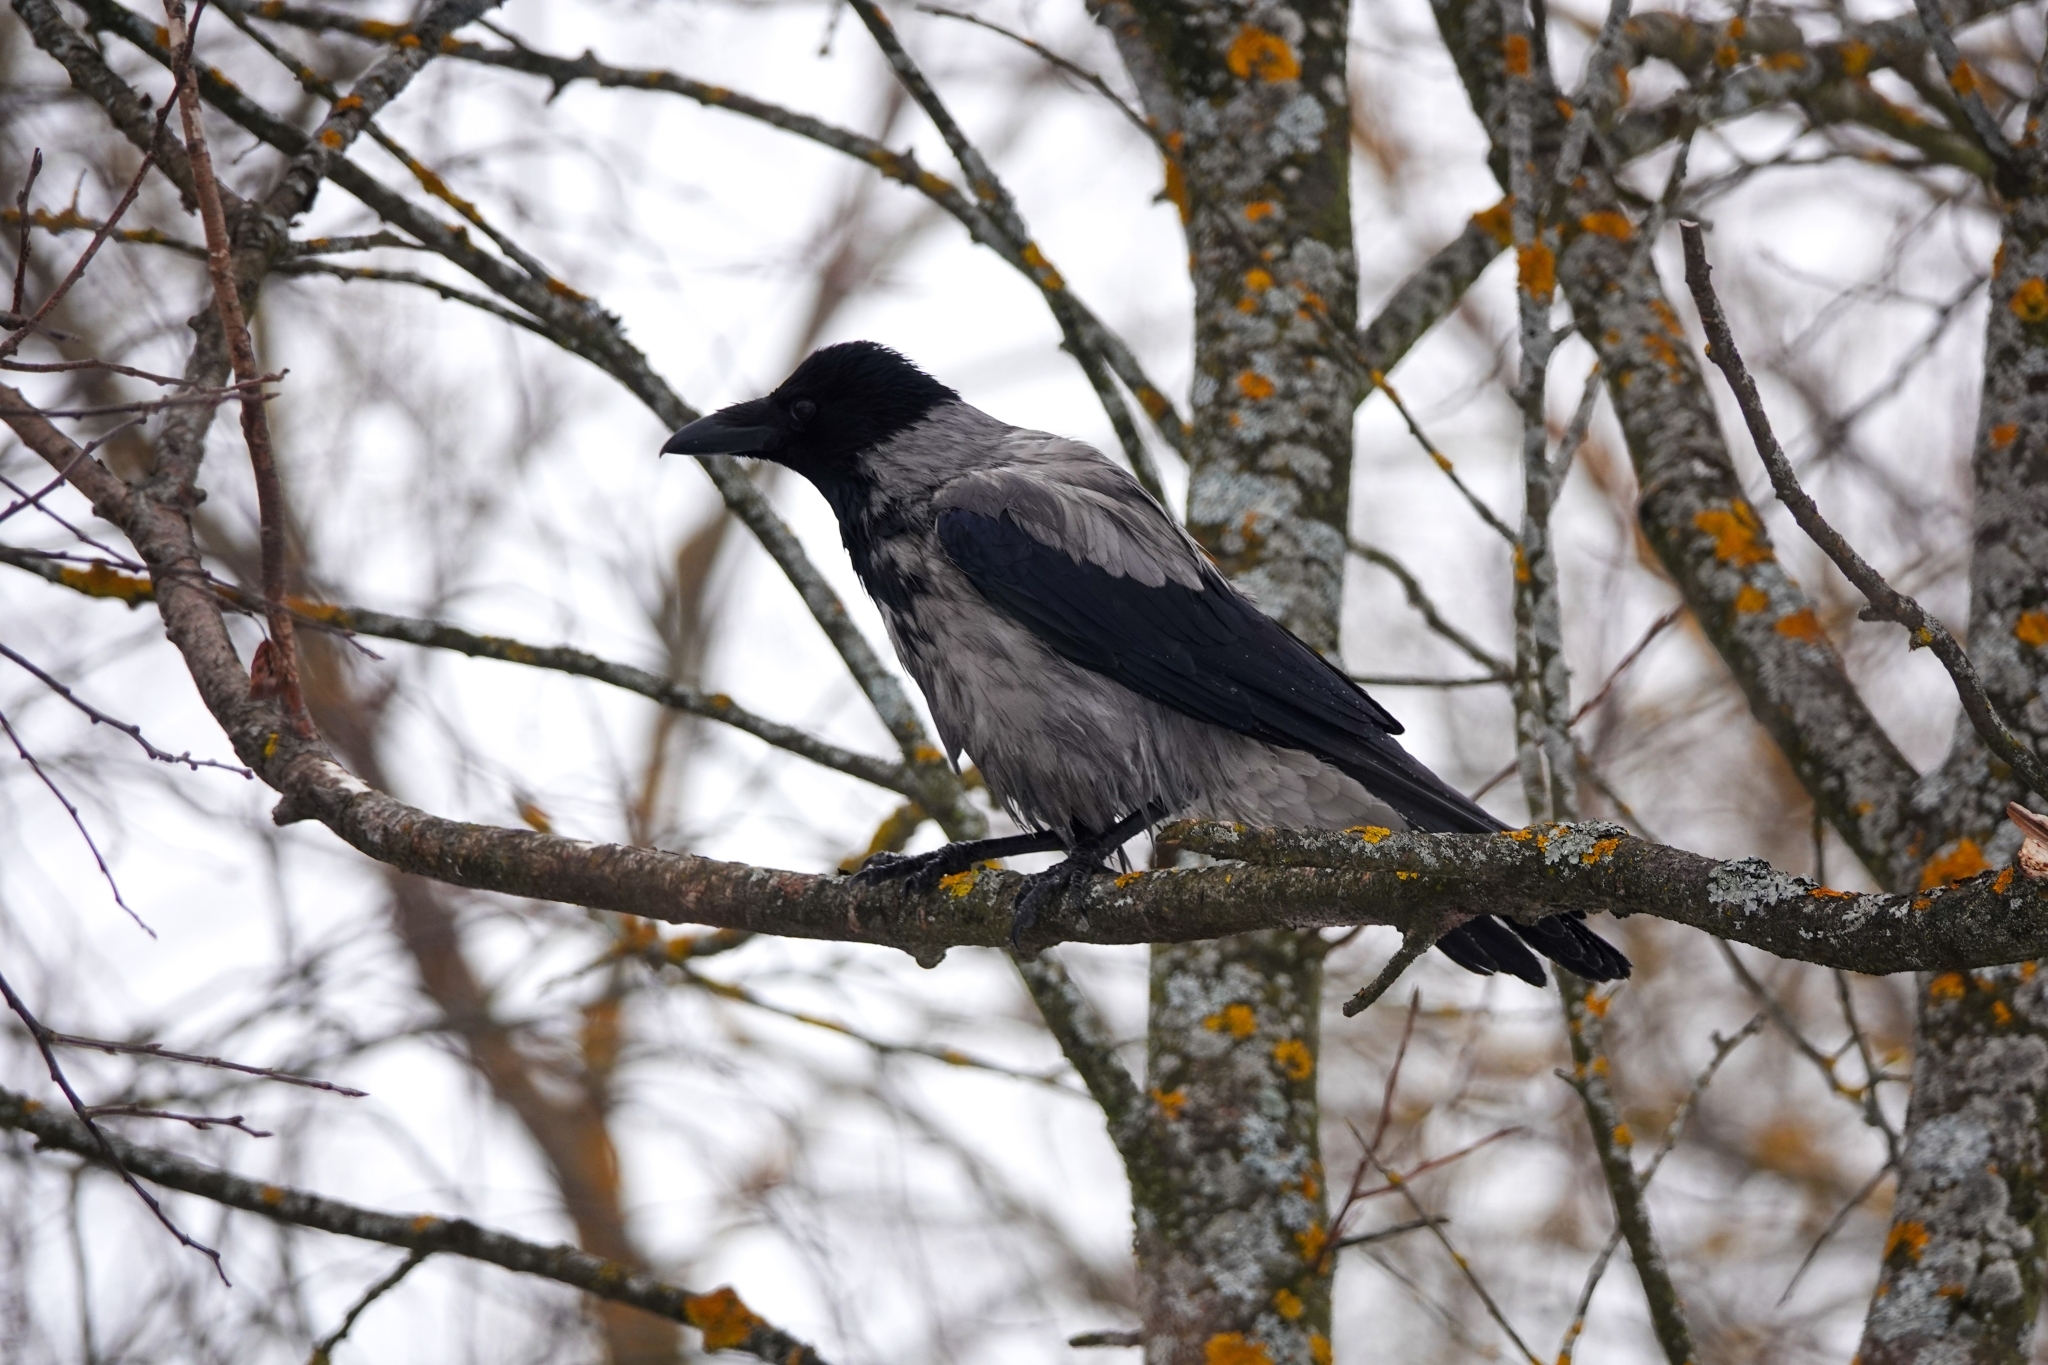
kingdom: Animalia
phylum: Chordata
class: Aves
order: Passeriformes
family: Corvidae
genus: Corvus
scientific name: Corvus cornix
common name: Hooded crow
